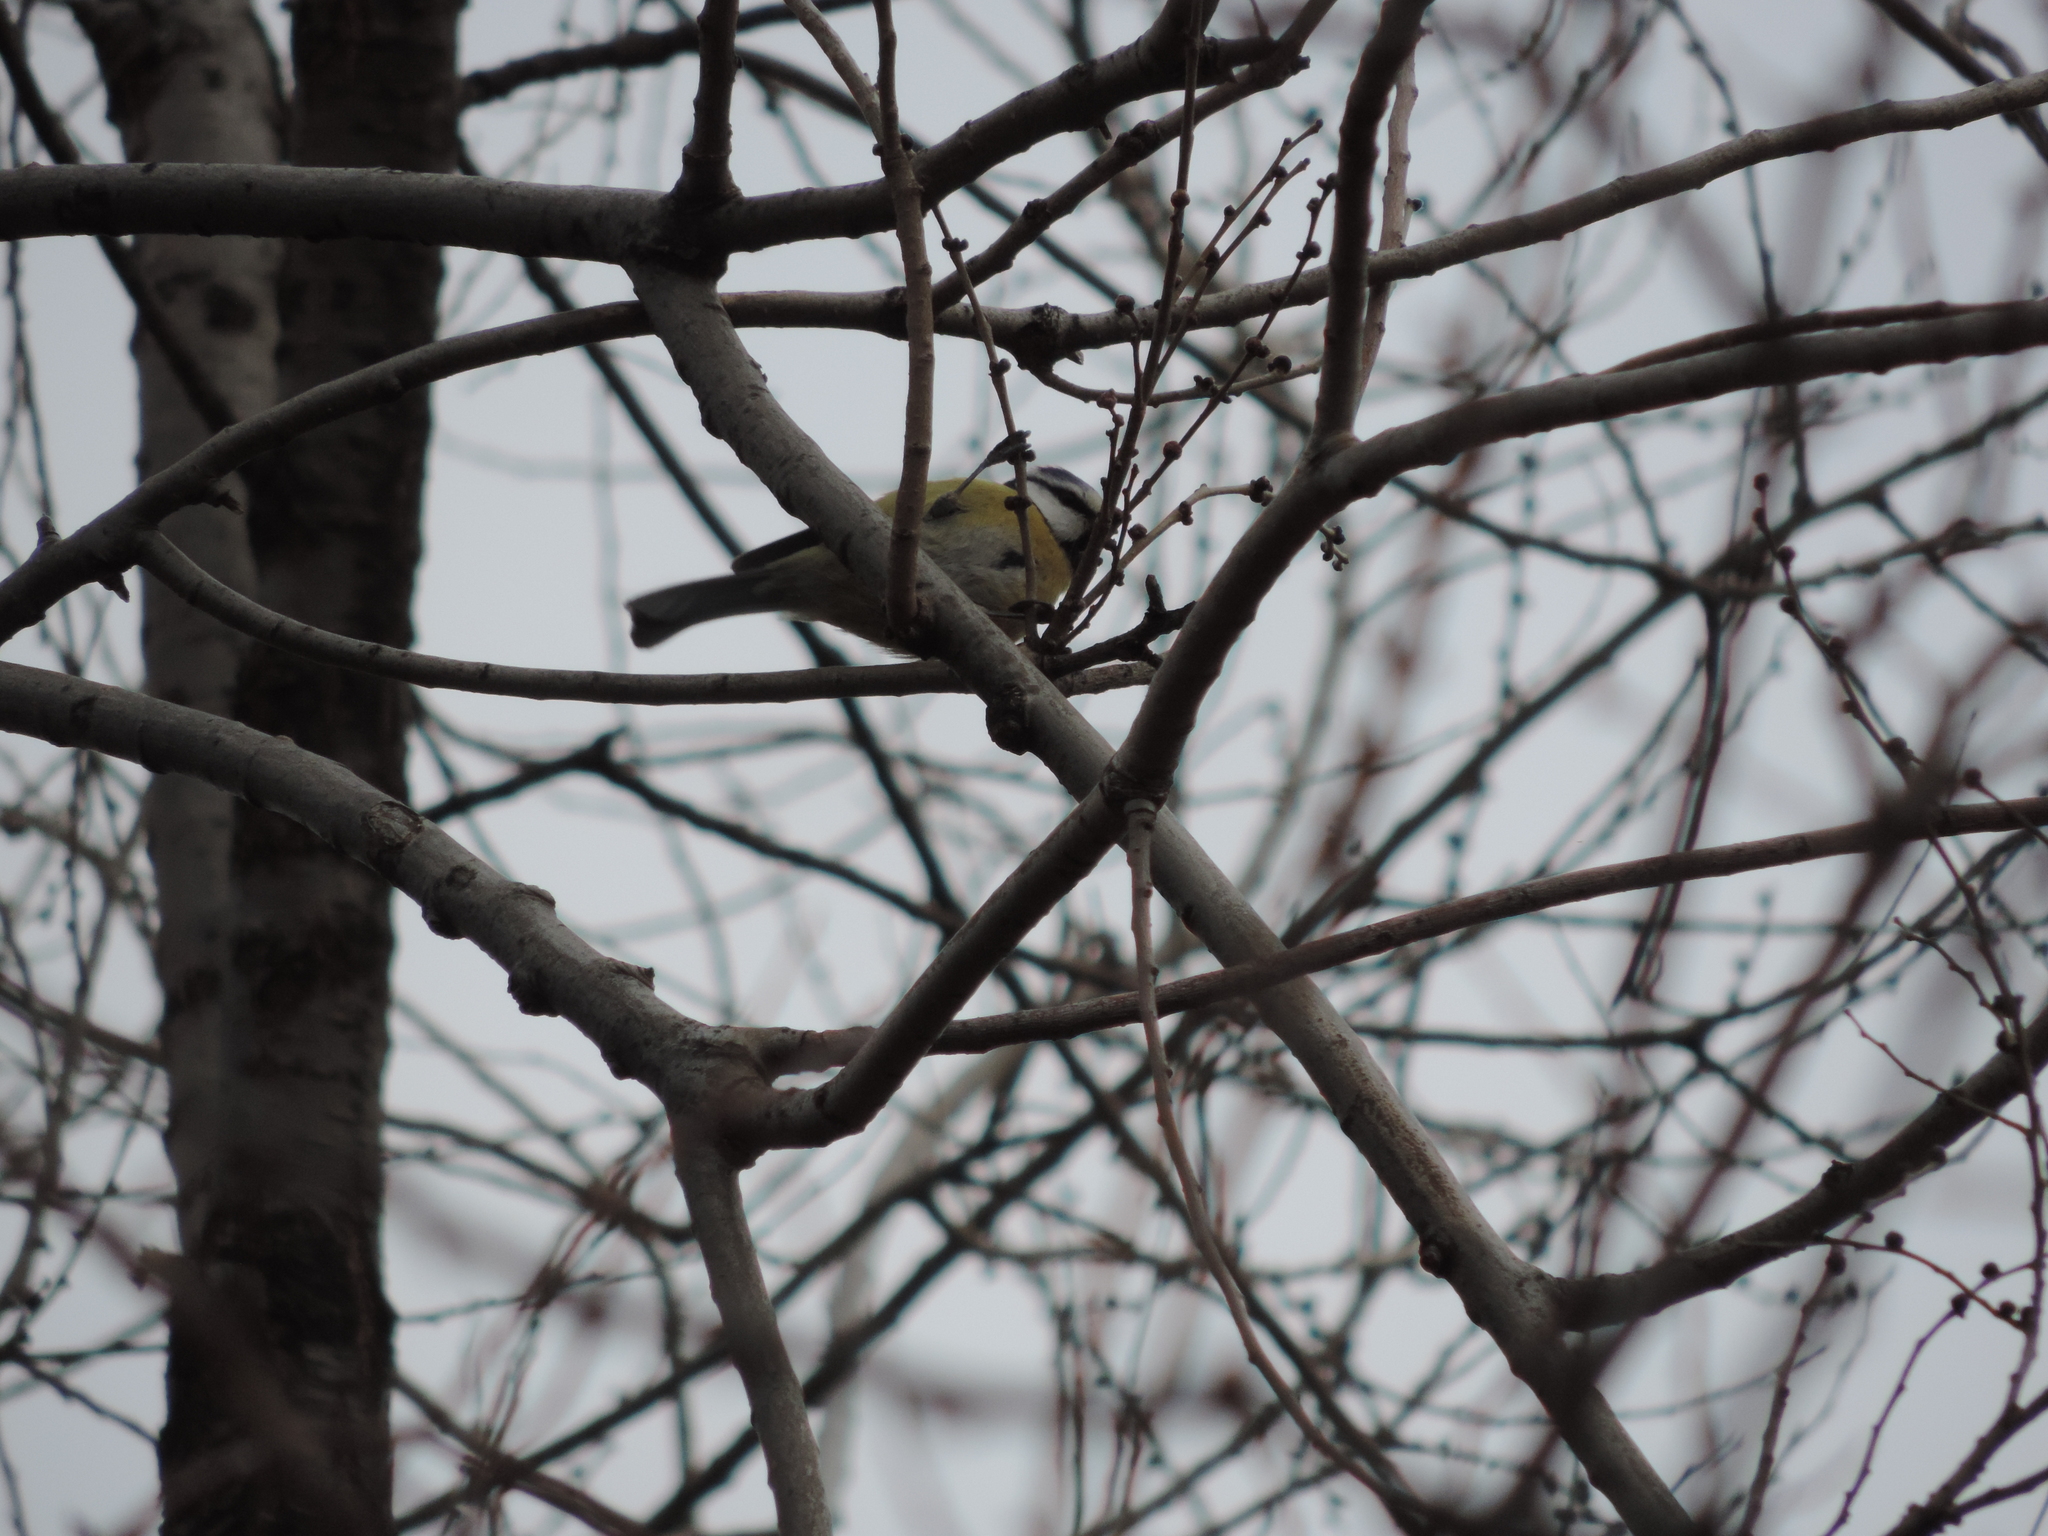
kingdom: Animalia
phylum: Chordata
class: Aves
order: Passeriformes
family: Paridae
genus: Cyanistes
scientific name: Cyanistes caeruleus
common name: Eurasian blue tit
